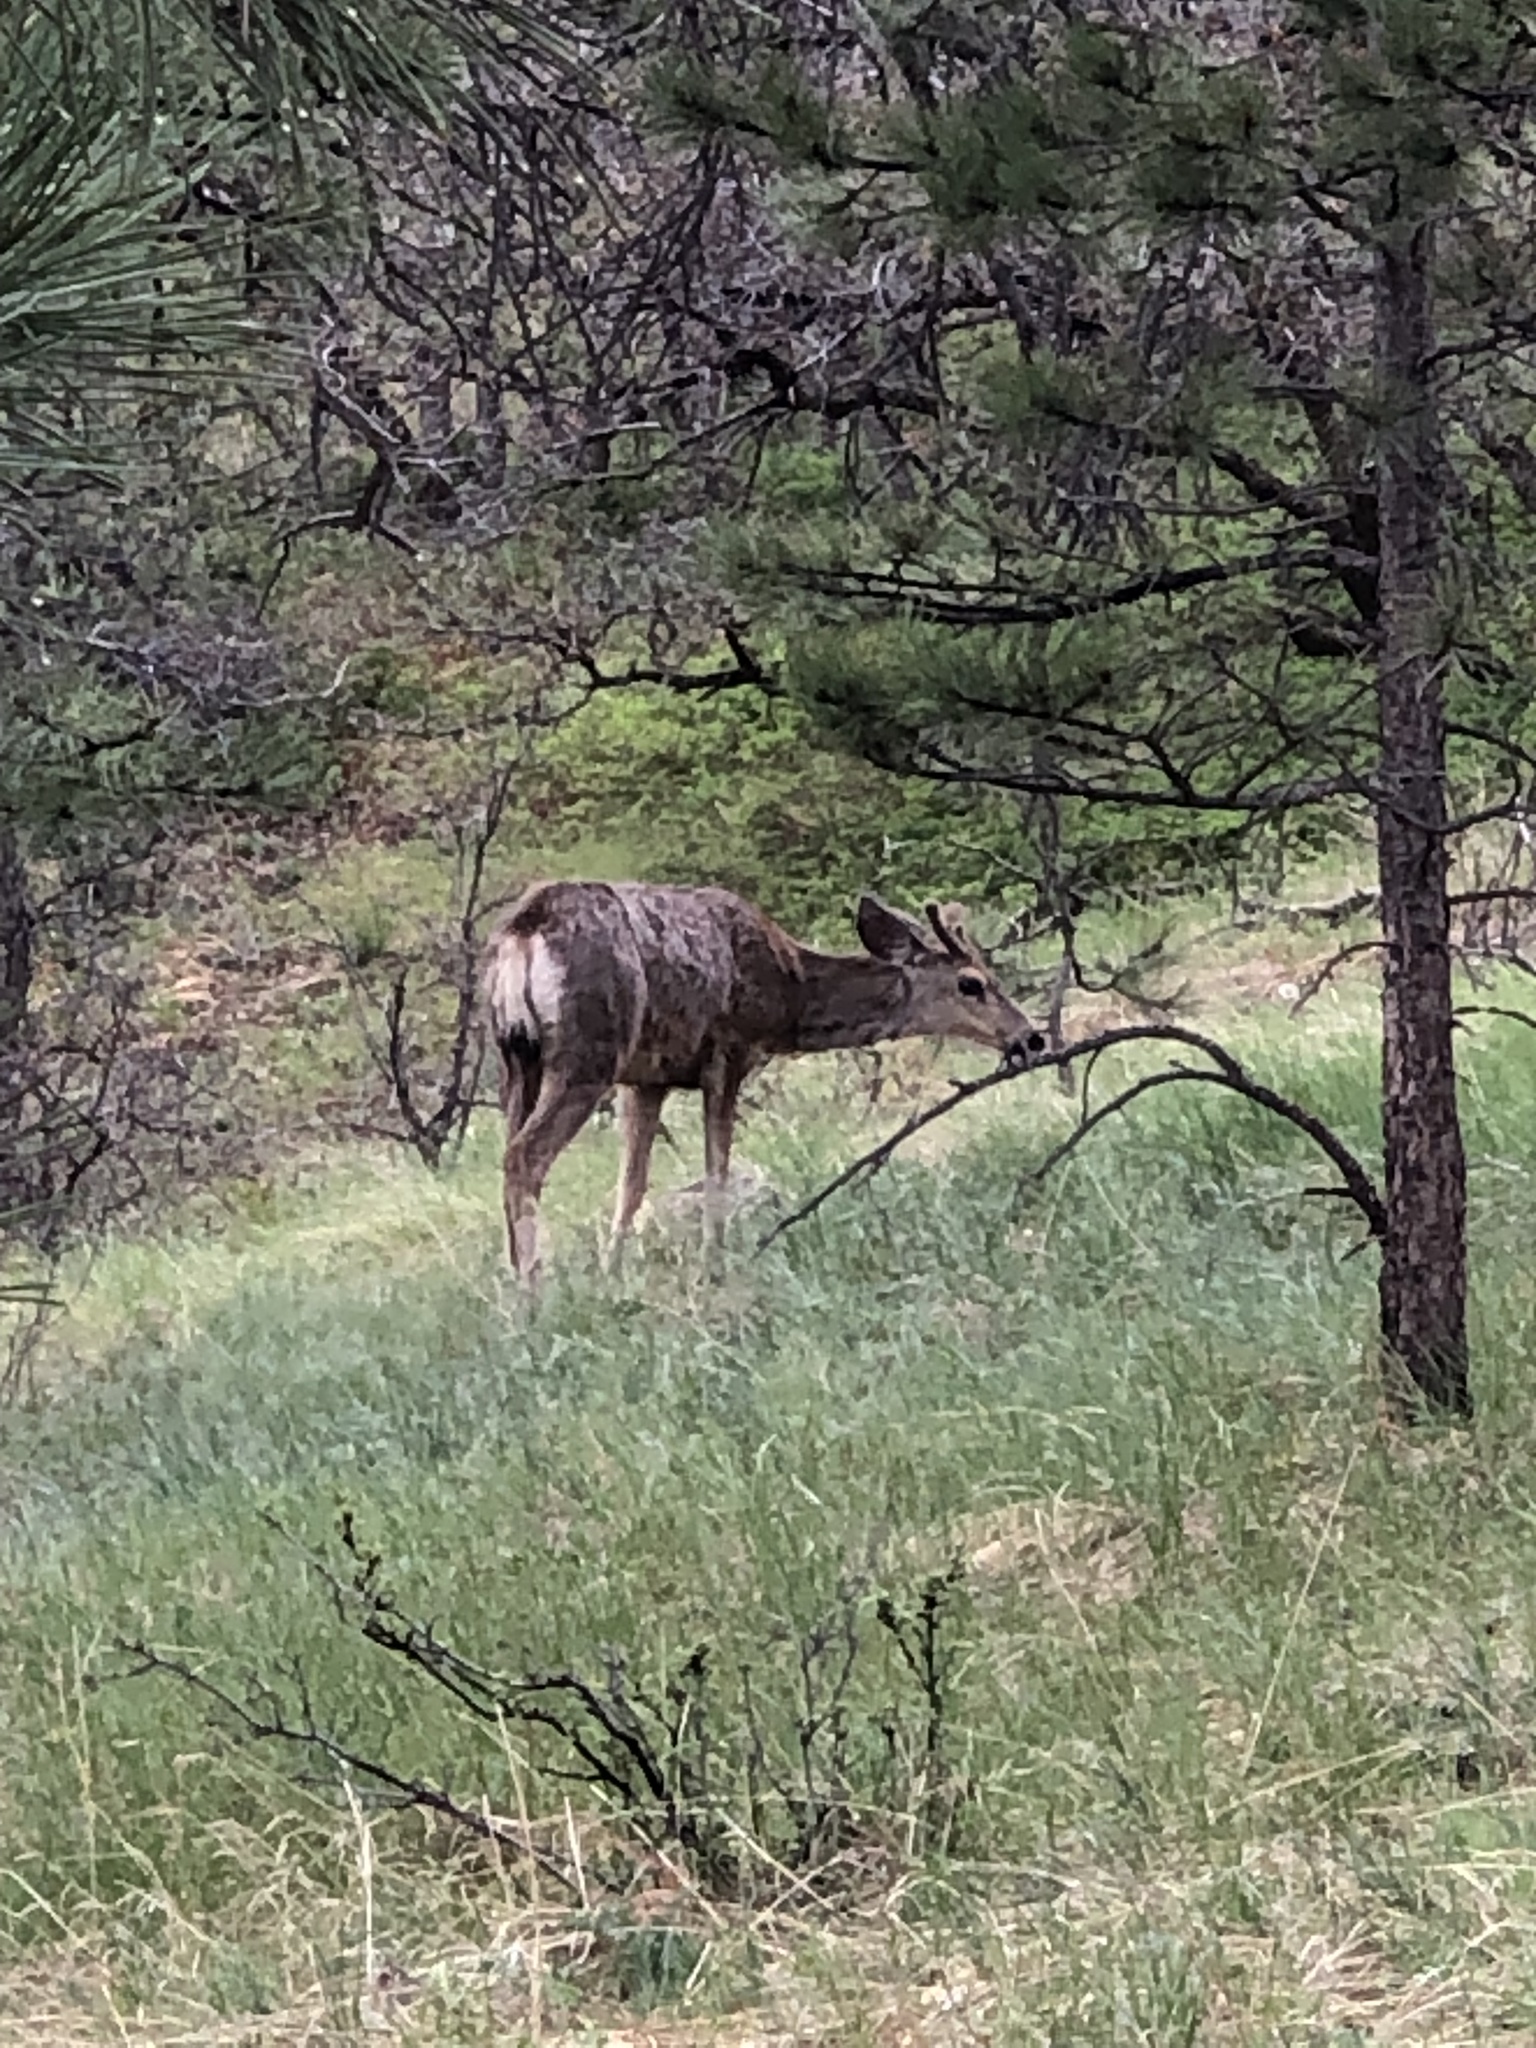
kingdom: Animalia
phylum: Chordata
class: Mammalia
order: Artiodactyla
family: Cervidae
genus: Odocoileus
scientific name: Odocoileus hemionus
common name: Mule deer
